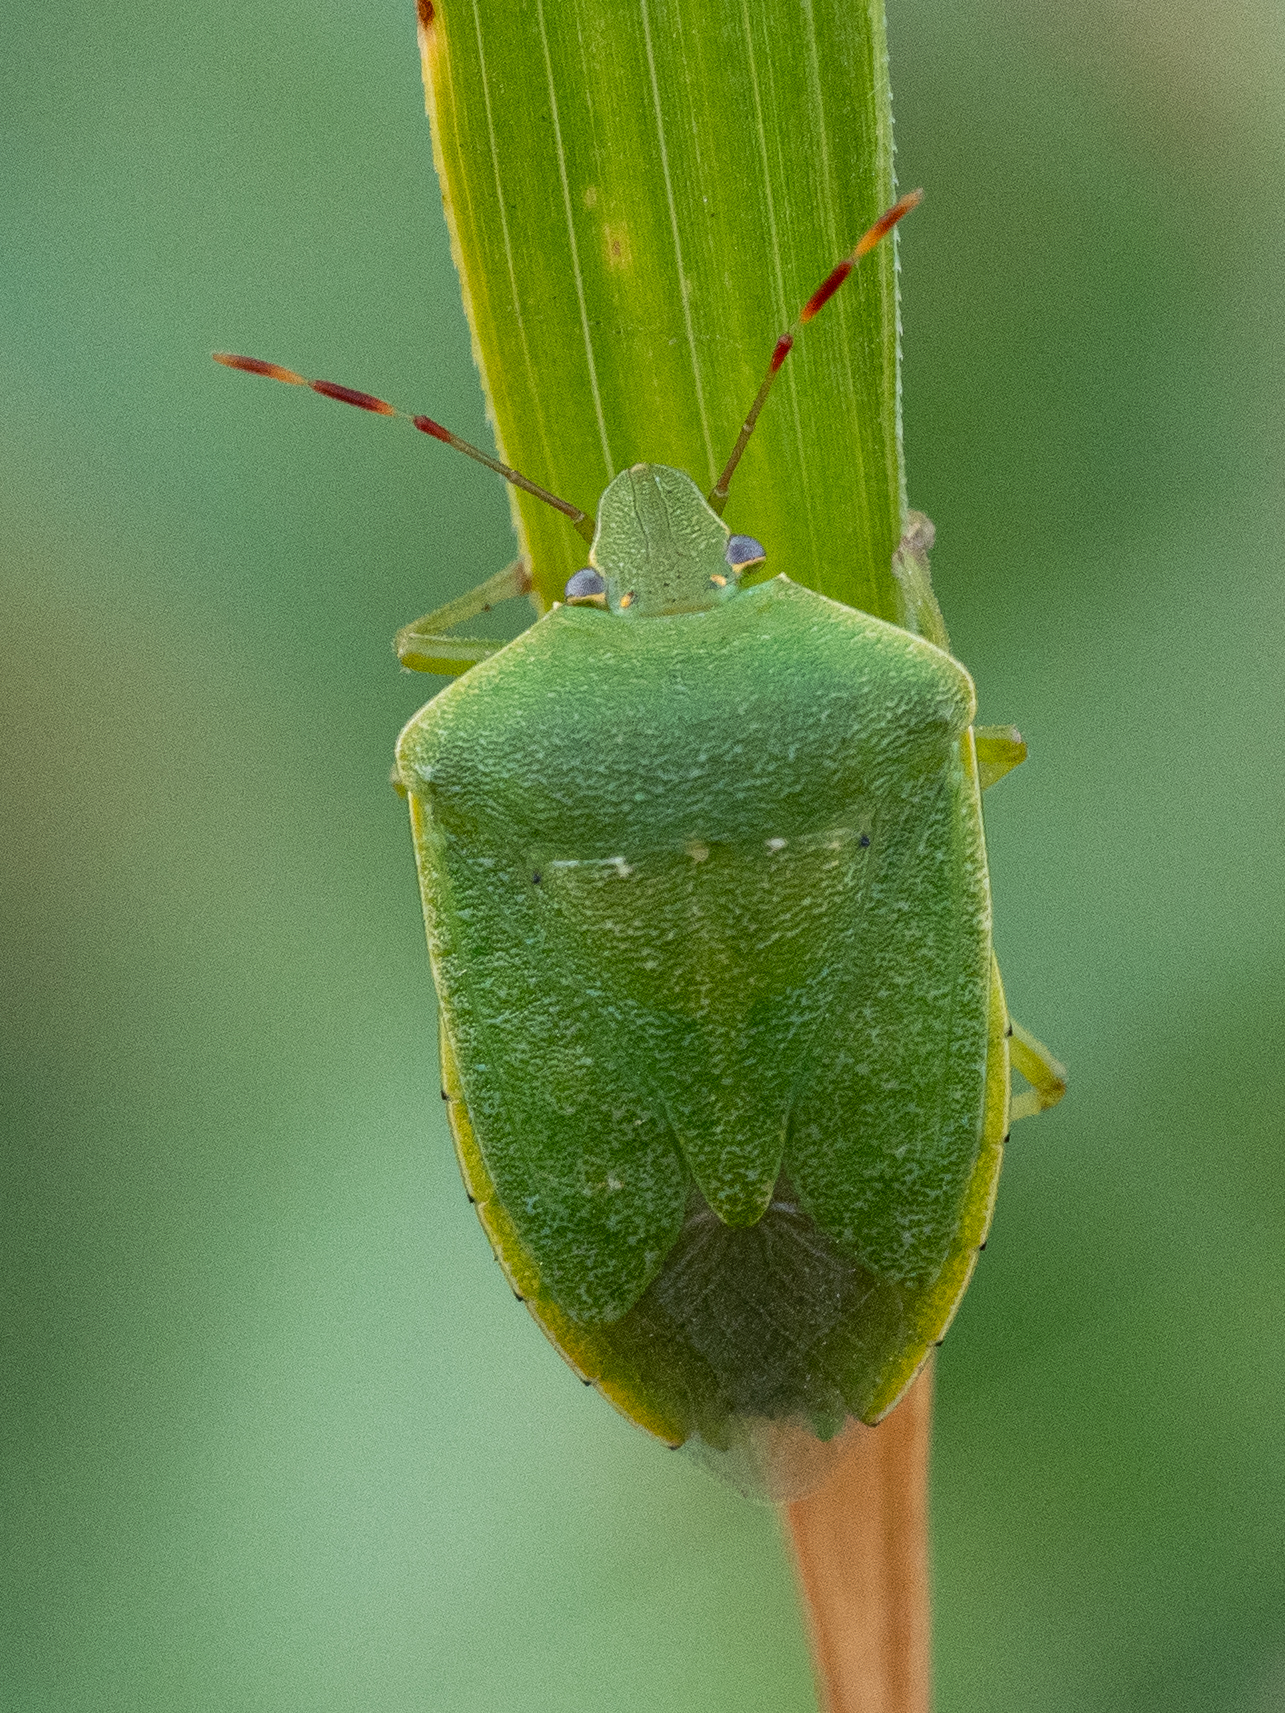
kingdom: Animalia
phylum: Arthropoda
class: Insecta
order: Hemiptera
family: Pentatomidae
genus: Nezara
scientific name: Nezara viridula
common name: Southern green stink bug
